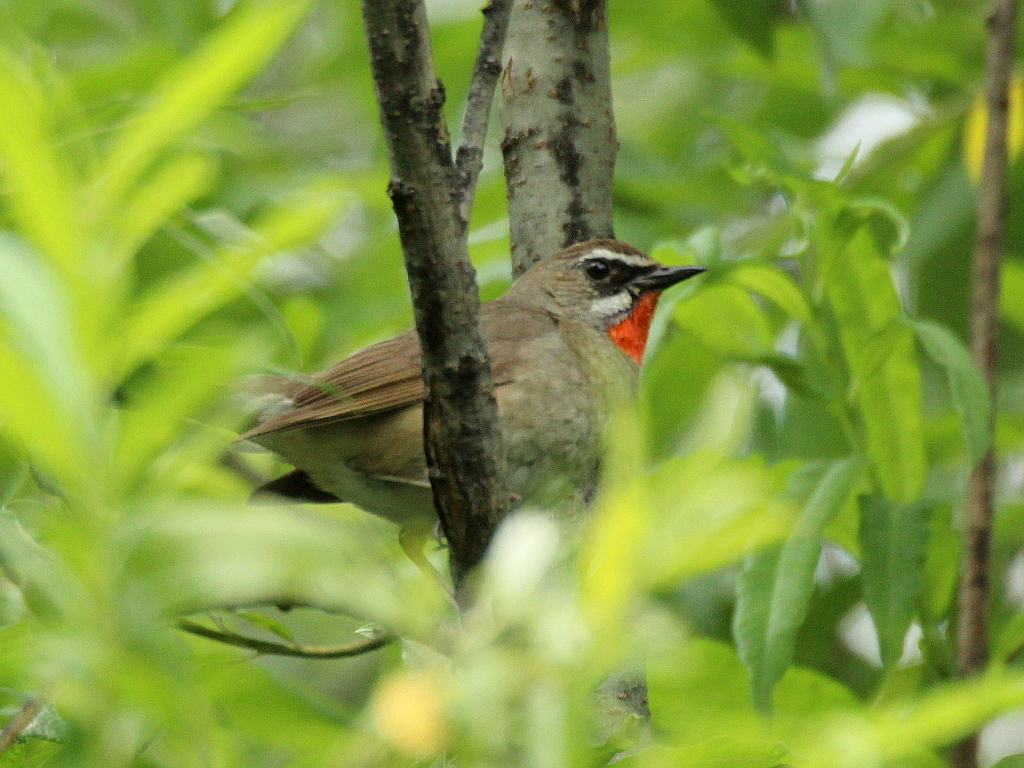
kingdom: Animalia
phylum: Chordata
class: Aves
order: Passeriformes
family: Muscicapidae
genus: Luscinia
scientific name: Luscinia calliope
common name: Siberian rubythroat
